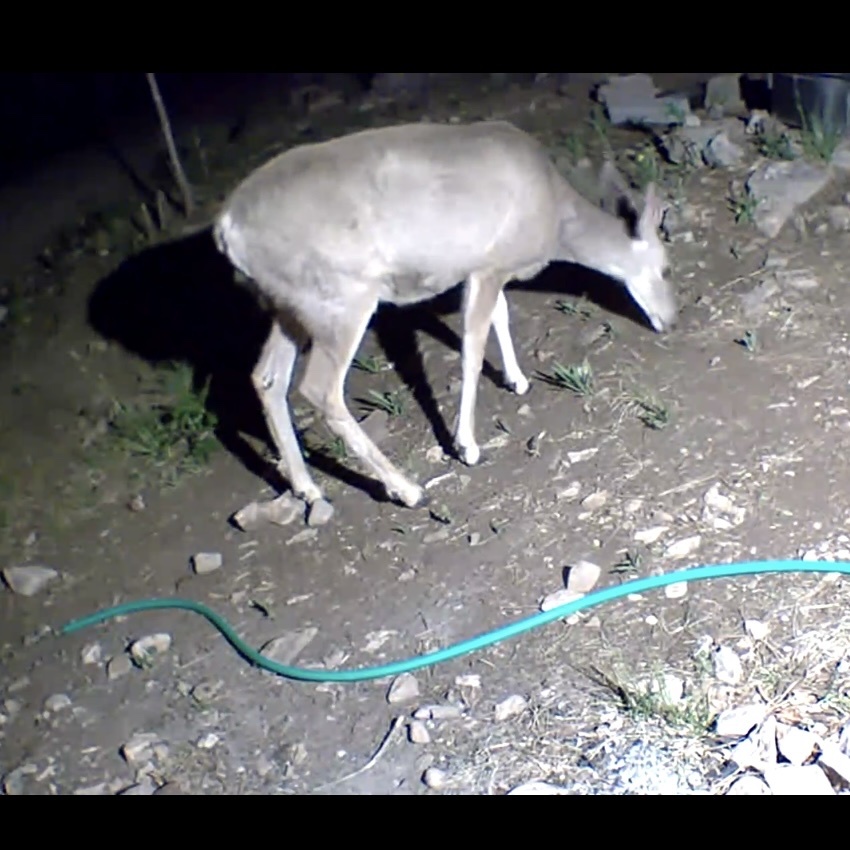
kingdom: Animalia
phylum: Chordata
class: Mammalia
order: Artiodactyla
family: Cervidae
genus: Odocoileus
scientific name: Odocoileus hemionus
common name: Mule deer
